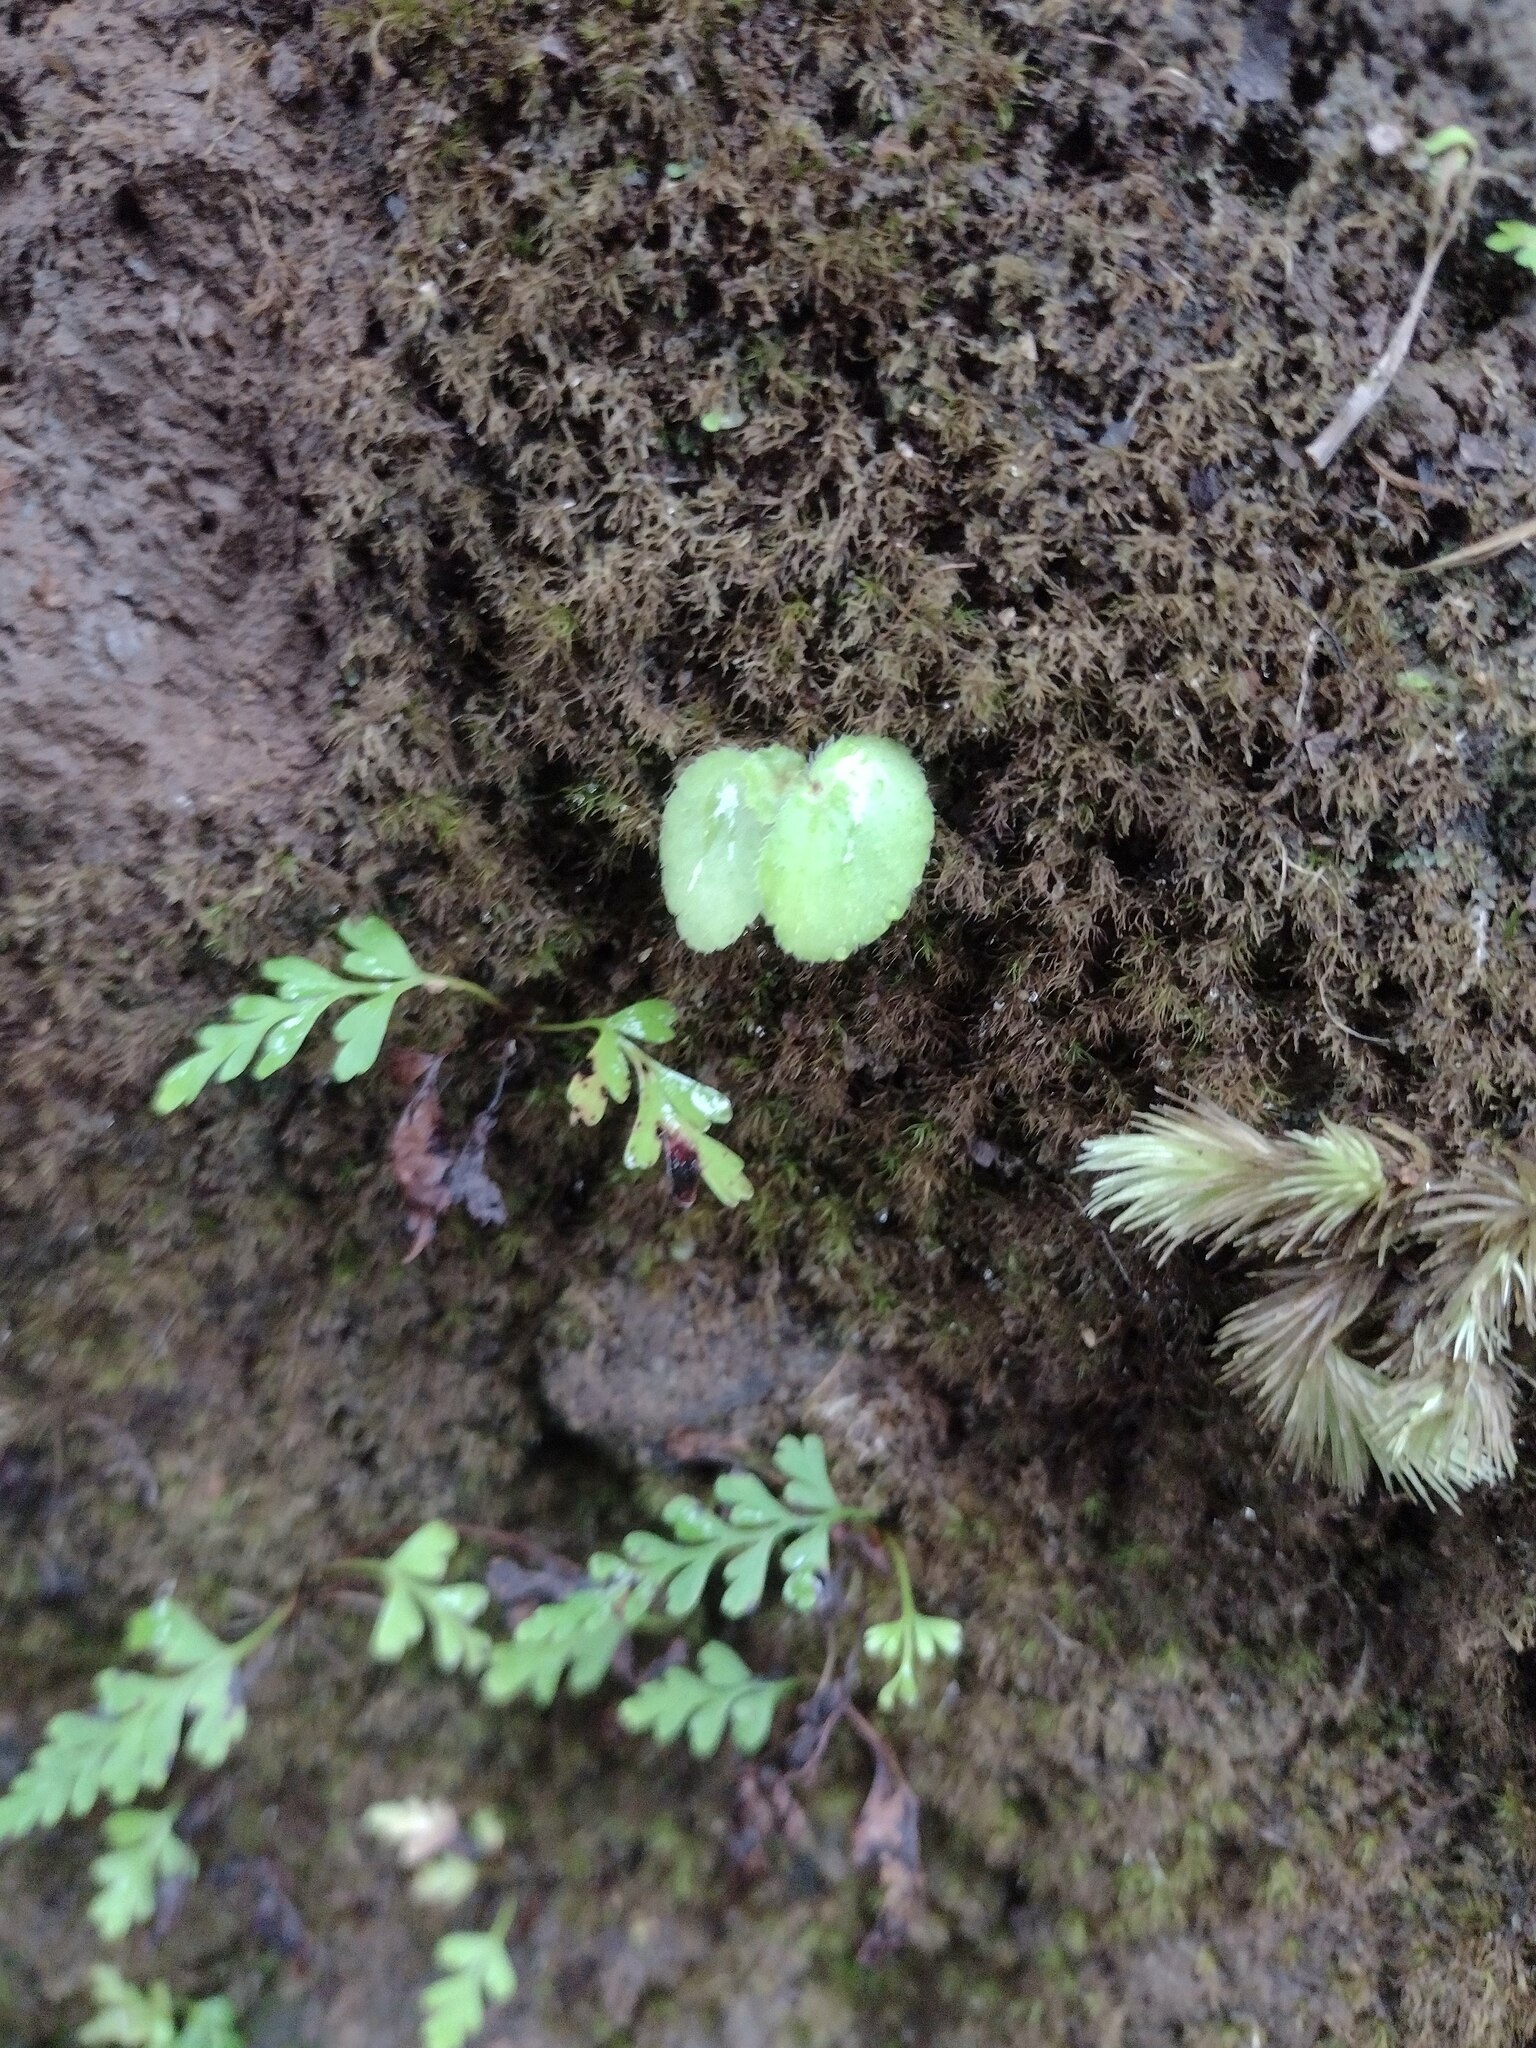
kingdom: Plantae
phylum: Tracheophyta
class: Magnoliopsida
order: Cucurbitales
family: Begoniaceae
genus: Begonia
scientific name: Begonia hirtella
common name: Brazilian begonia
